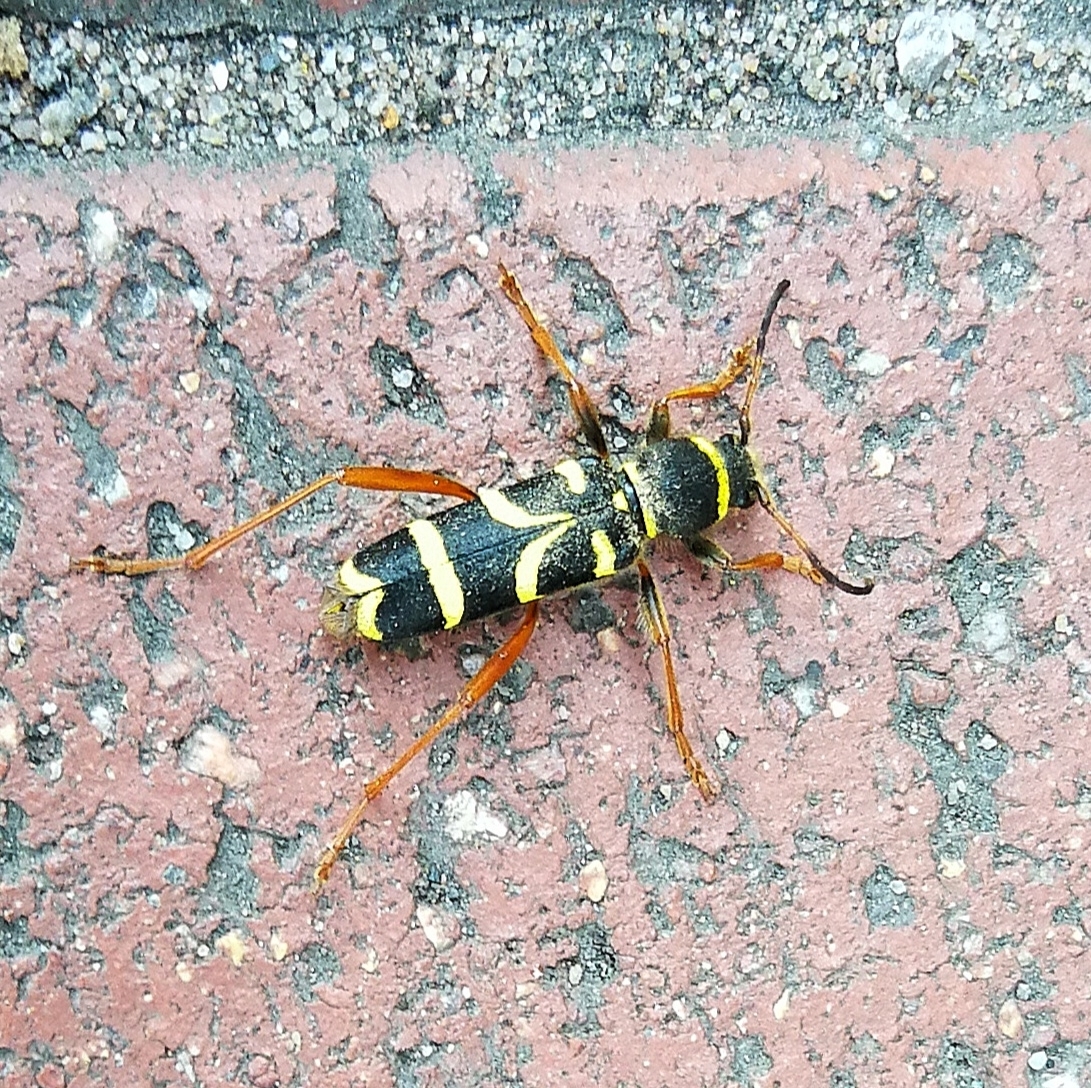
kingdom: Animalia
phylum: Arthropoda
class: Insecta
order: Coleoptera
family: Cerambycidae
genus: Clytus
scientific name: Clytus arietis
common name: Wasp beetle
